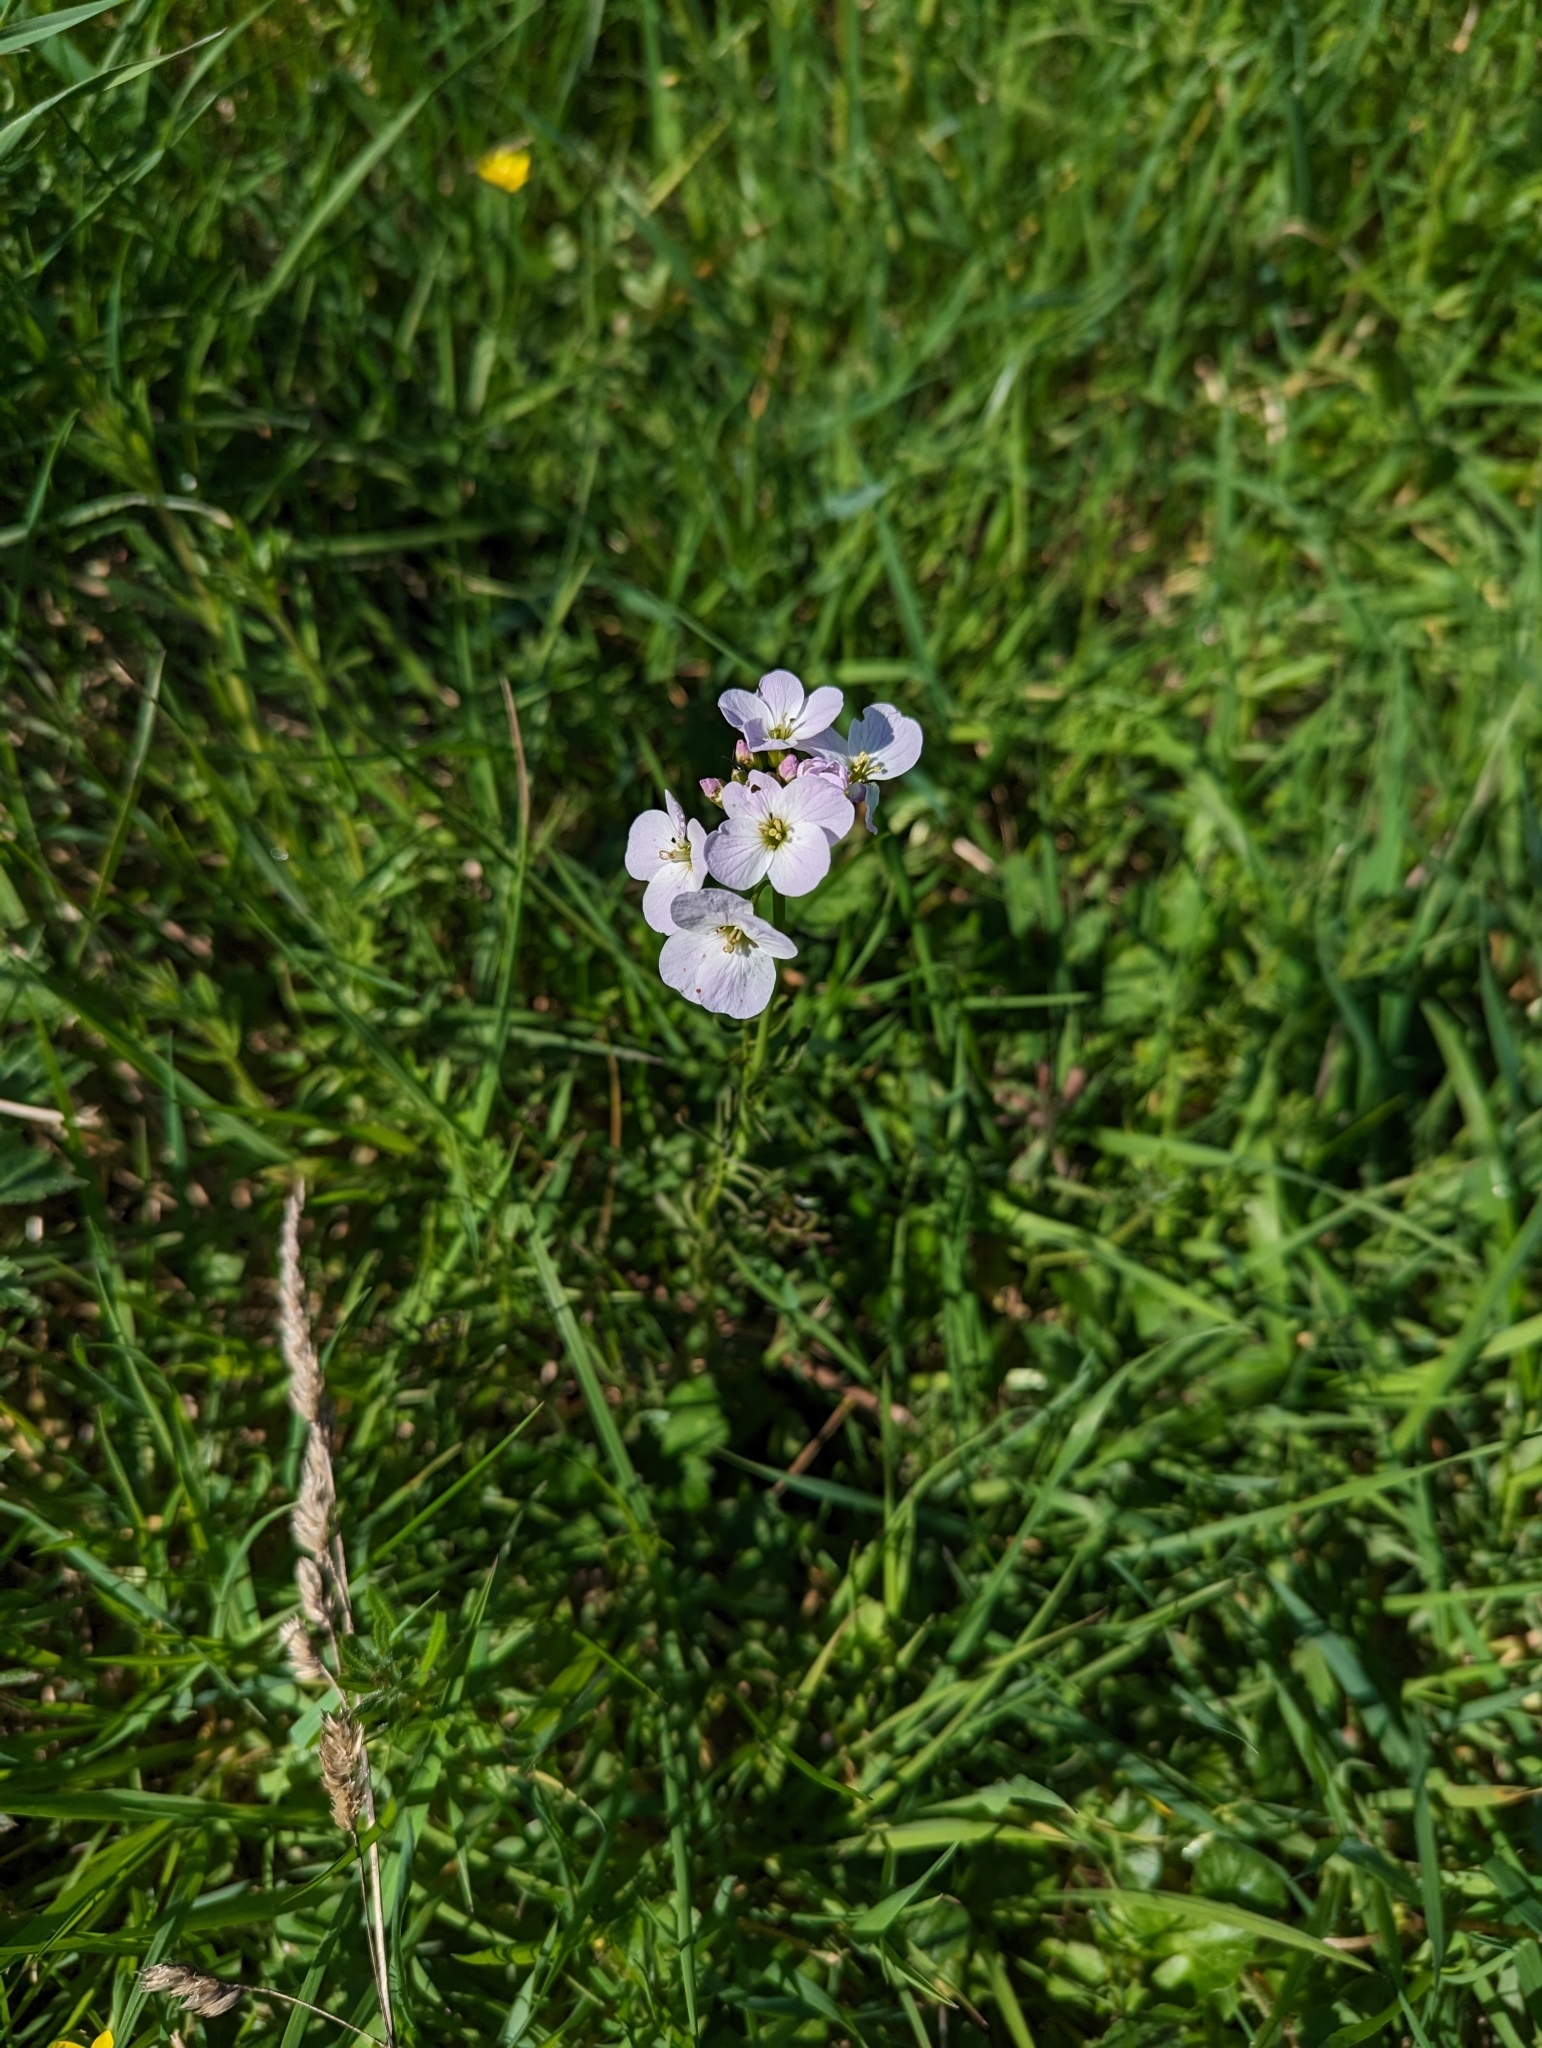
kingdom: Plantae
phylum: Tracheophyta
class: Magnoliopsida
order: Brassicales
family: Brassicaceae
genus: Cardamine
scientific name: Cardamine pratensis
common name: Cuckoo flower
